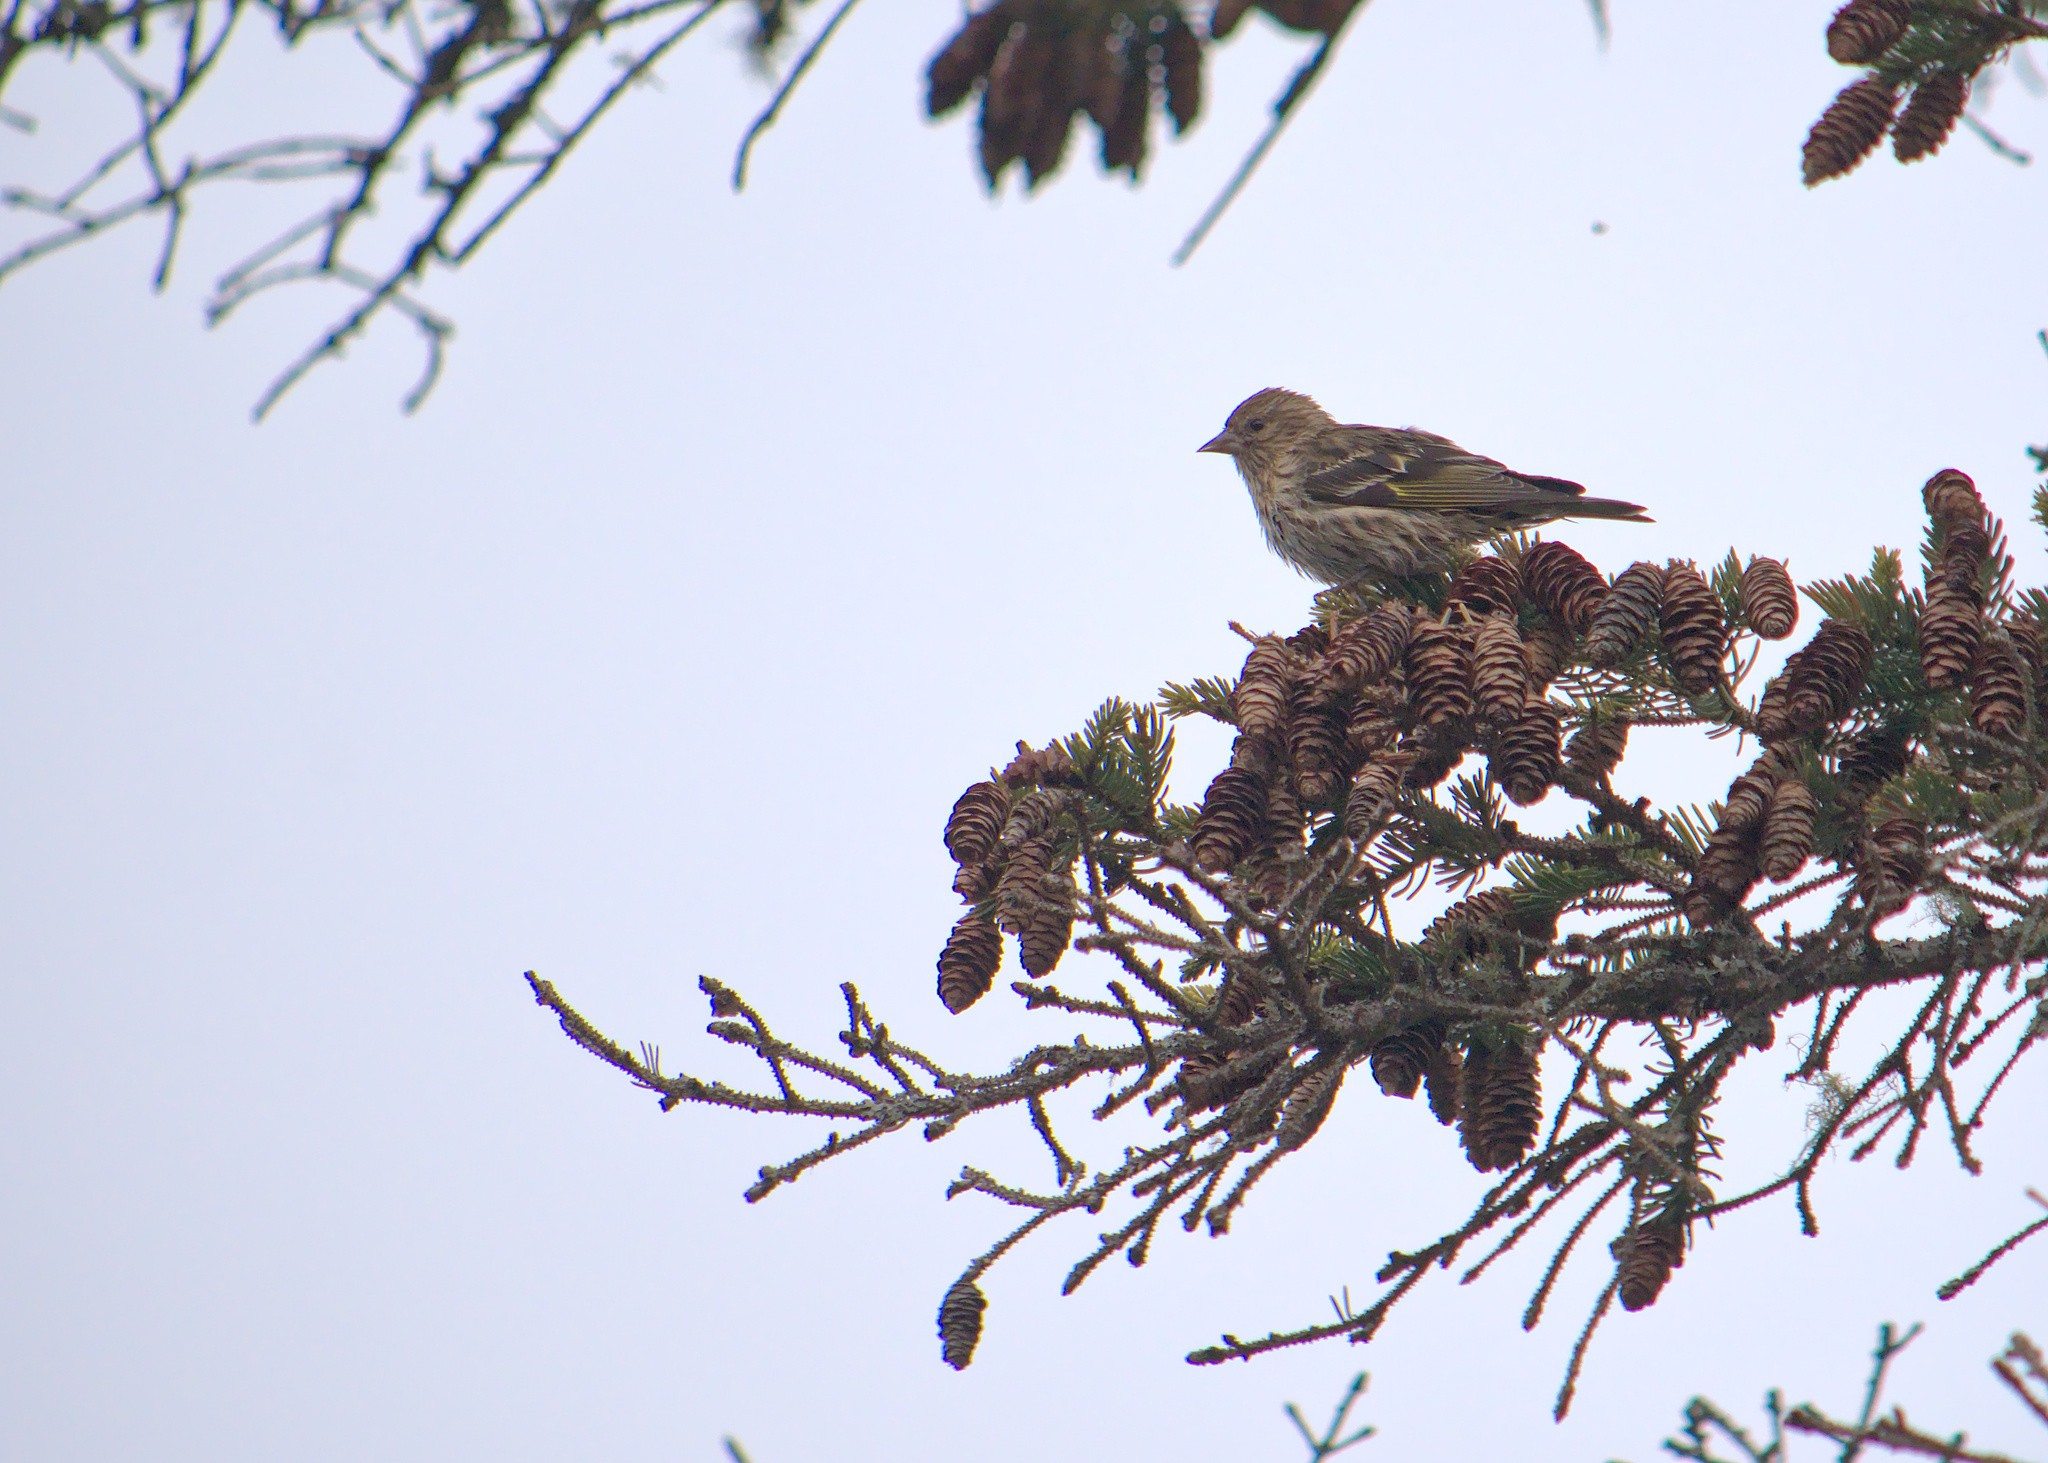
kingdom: Animalia
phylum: Chordata
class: Aves
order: Passeriformes
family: Fringillidae
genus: Spinus
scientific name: Spinus pinus
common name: Pine siskin
